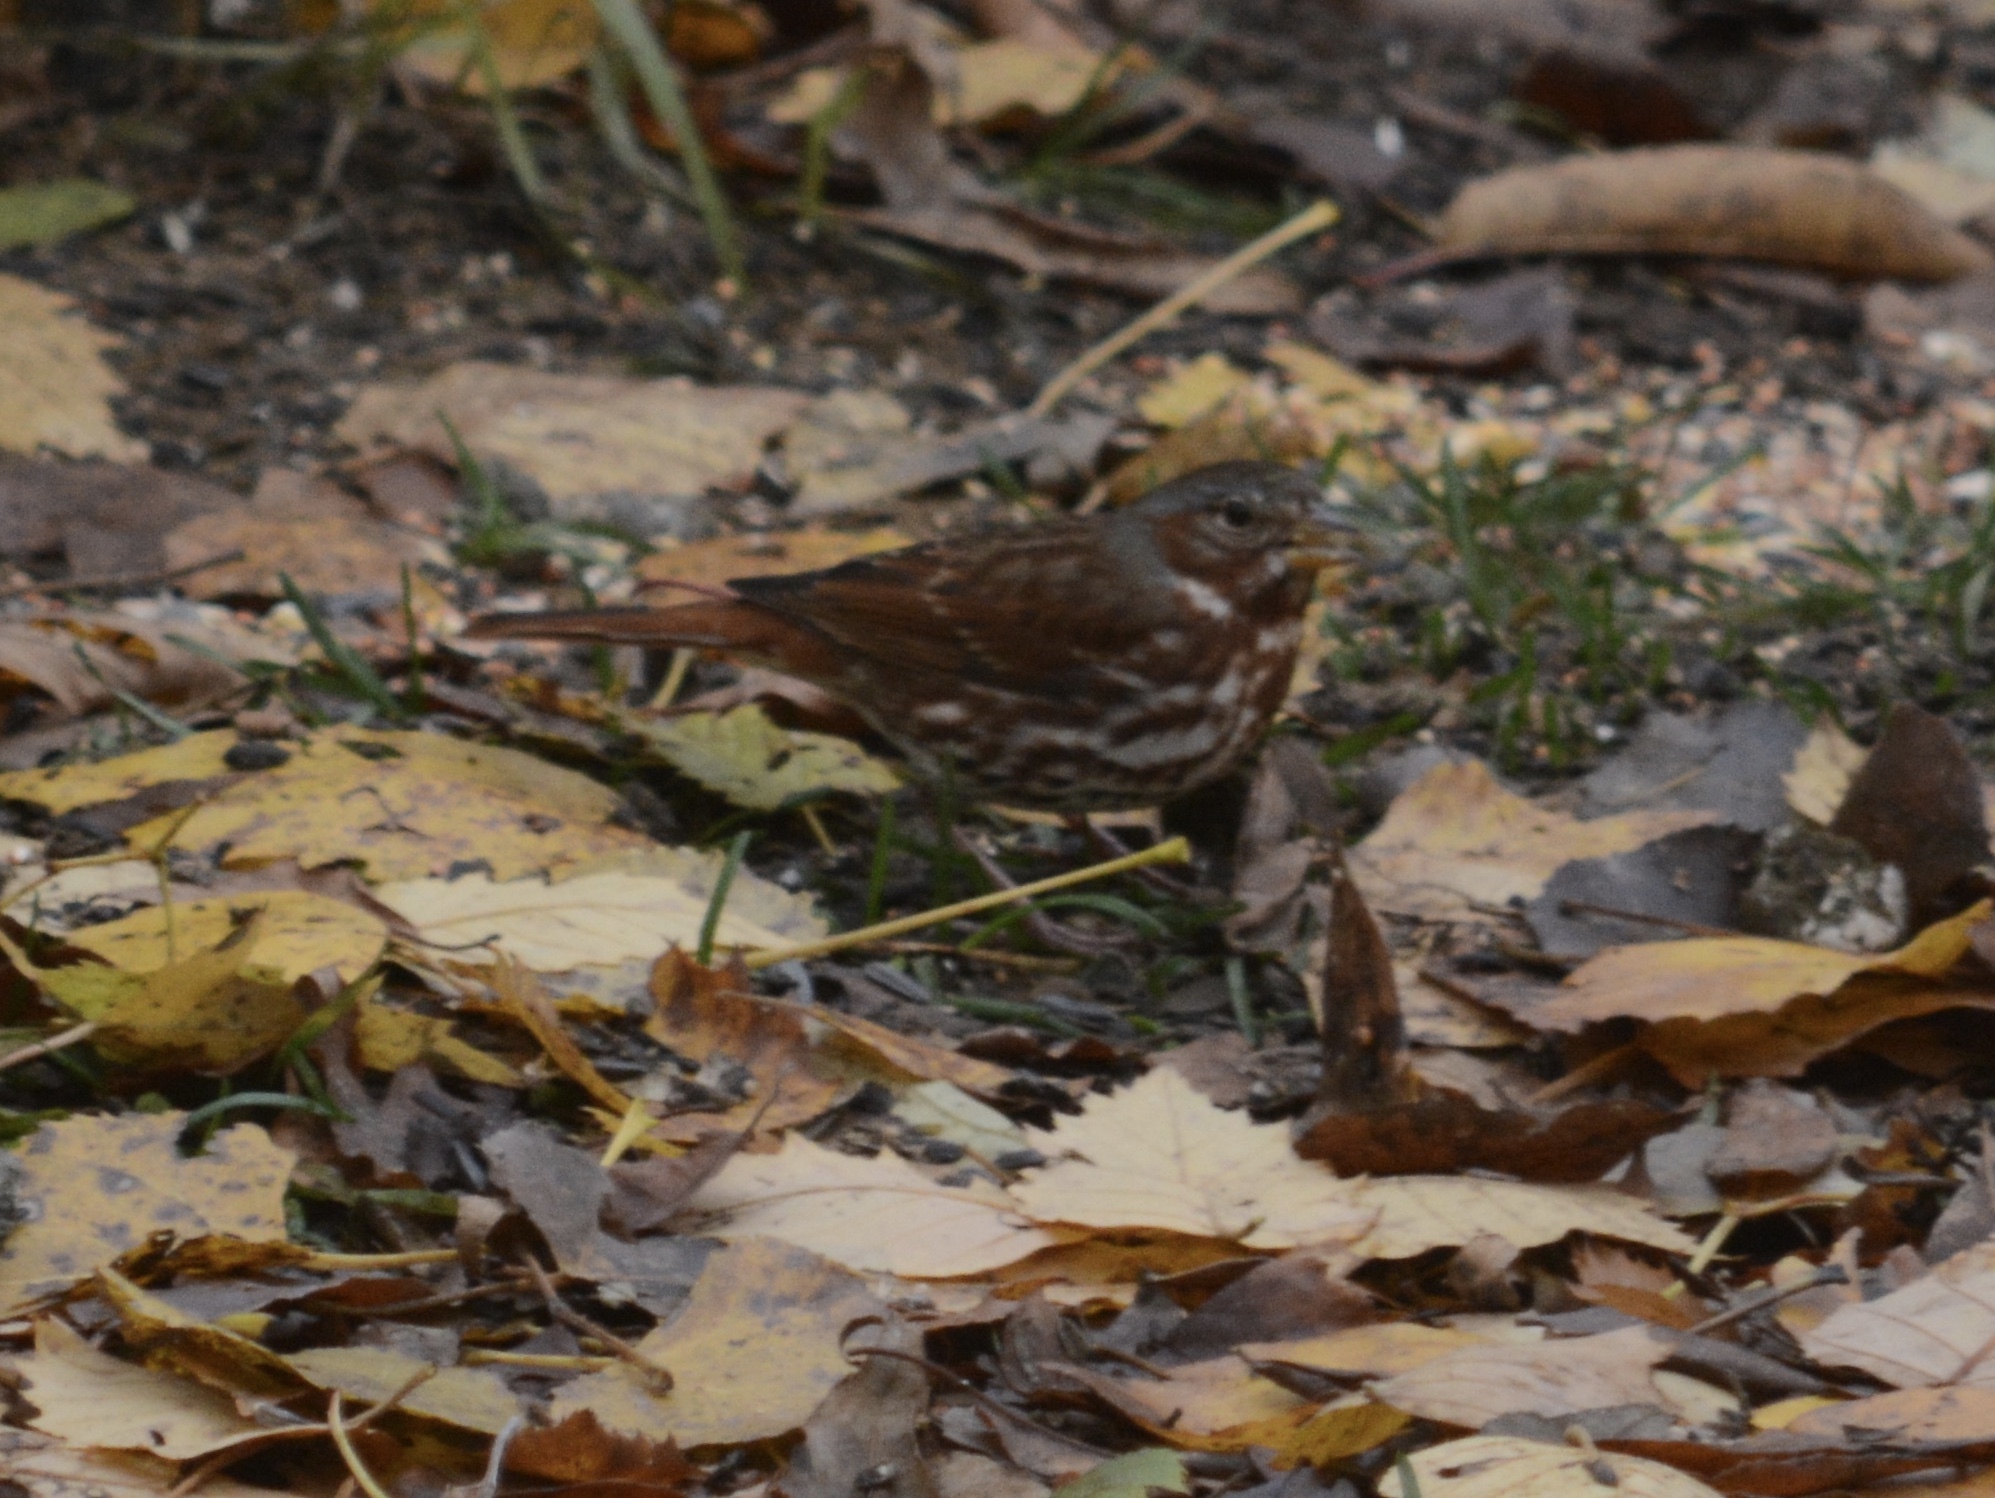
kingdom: Animalia
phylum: Chordata
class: Aves
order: Passeriformes
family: Passerellidae
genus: Passerella
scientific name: Passerella iliaca
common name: Fox sparrow
